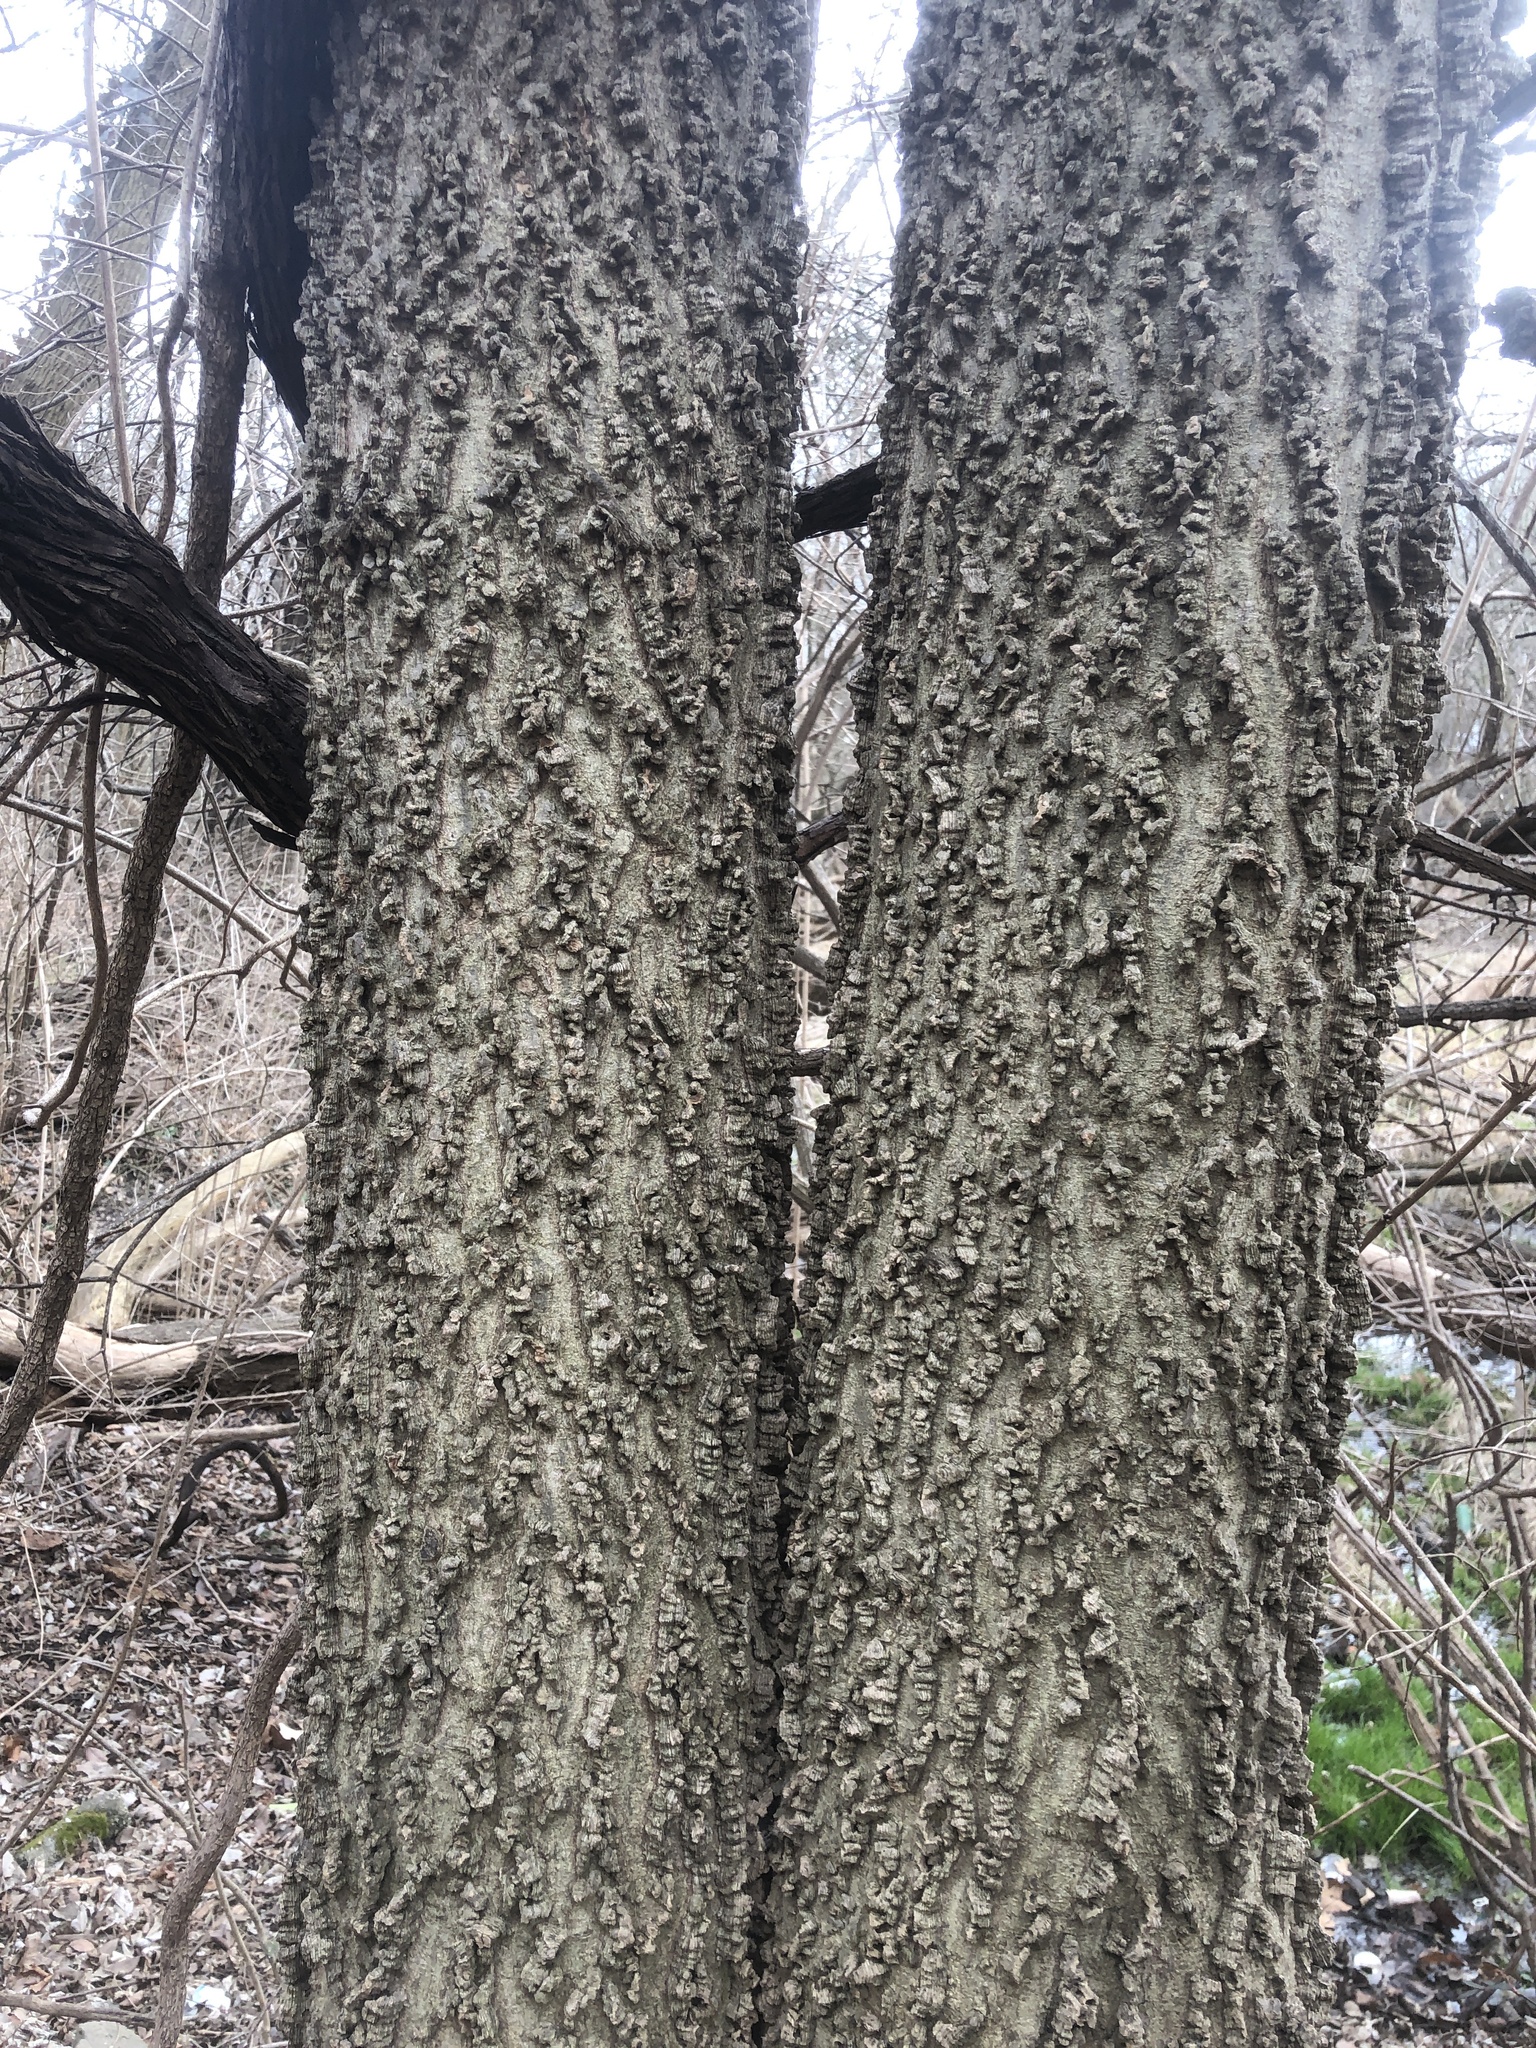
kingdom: Plantae
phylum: Tracheophyta
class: Magnoliopsida
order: Rosales
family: Cannabaceae
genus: Celtis
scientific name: Celtis occidentalis
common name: Common hackberry
